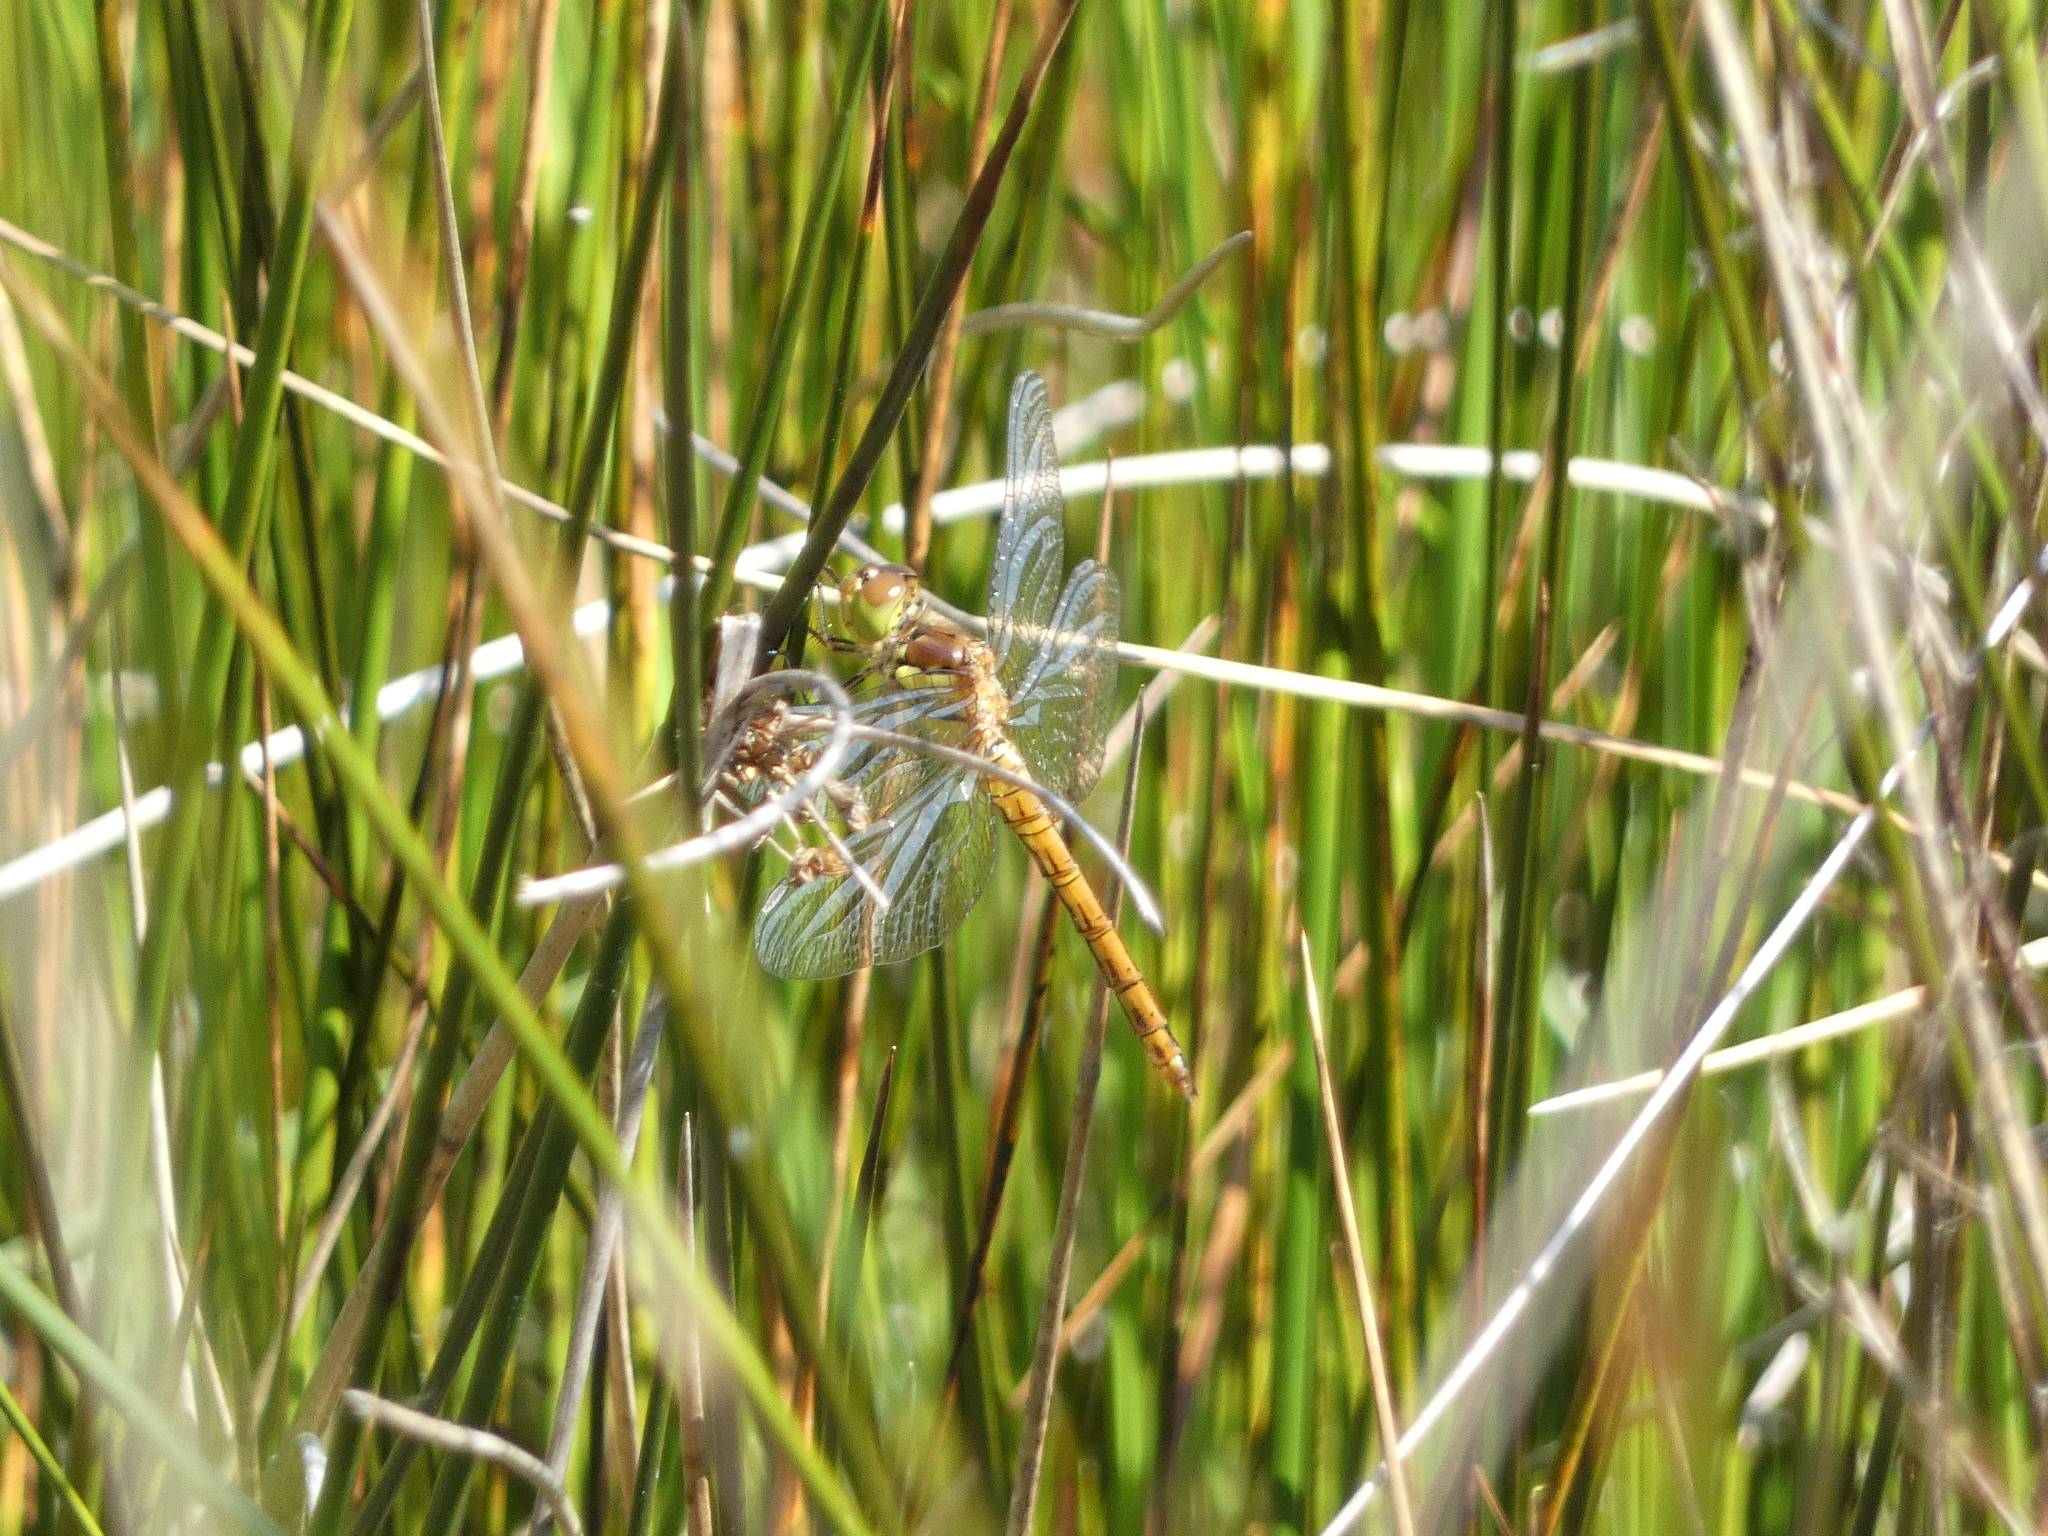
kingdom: Animalia
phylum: Arthropoda
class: Insecta
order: Odonata
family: Libellulidae
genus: Sympetrum
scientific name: Sympetrum striolatum
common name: Common darter
